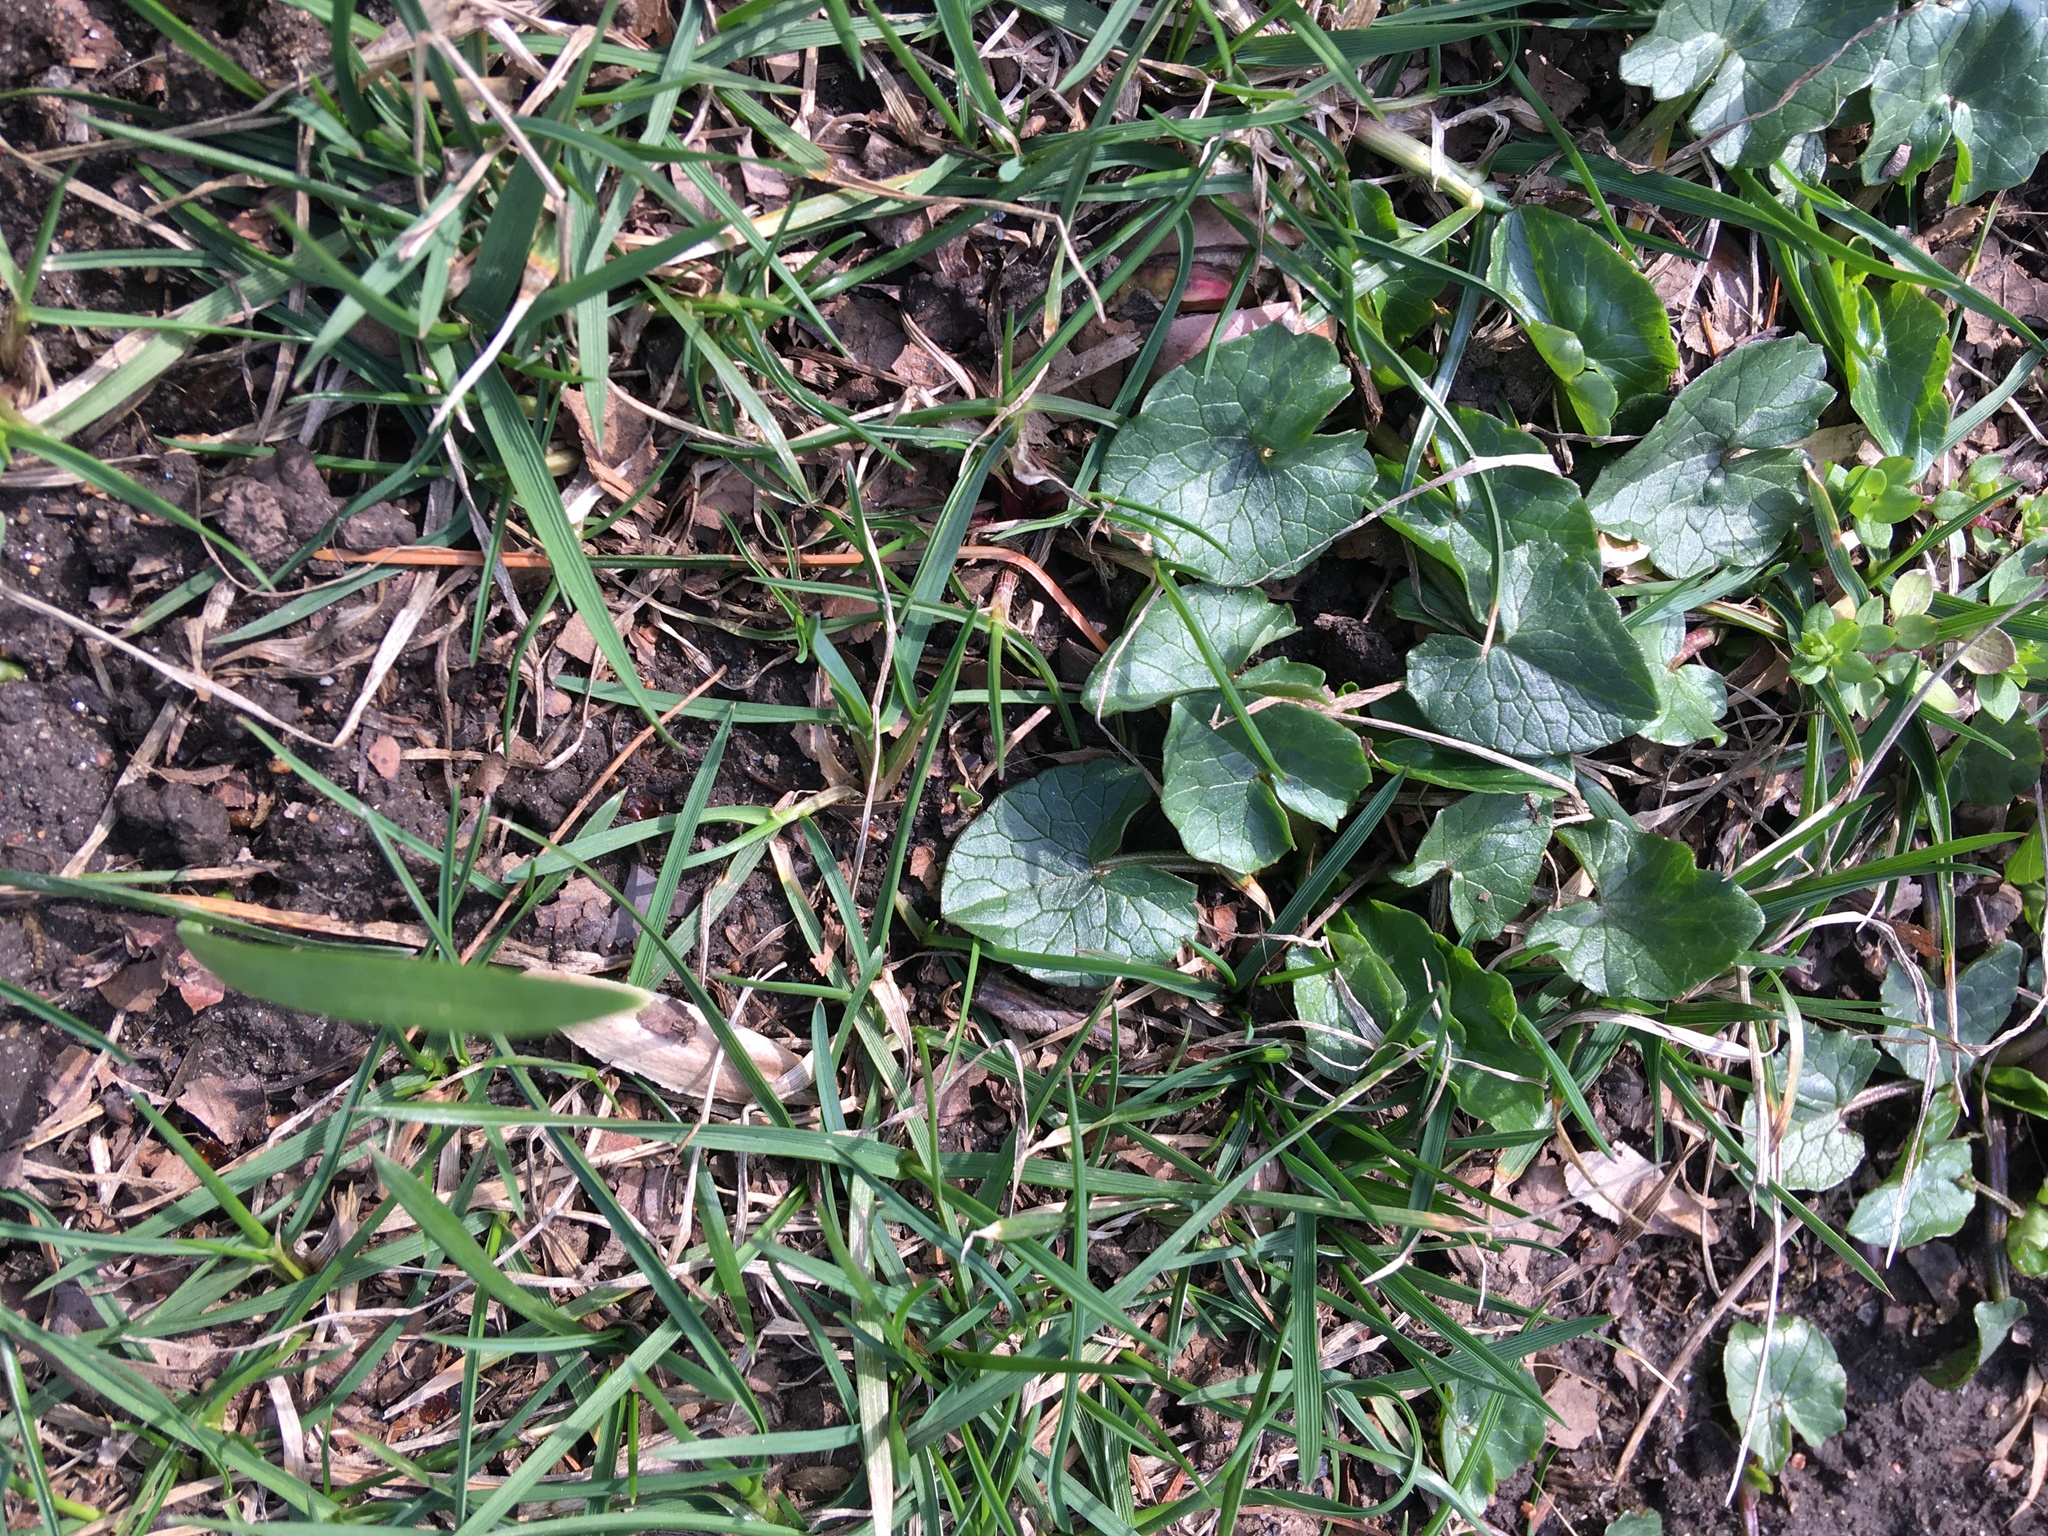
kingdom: Plantae
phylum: Tracheophyta
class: Magnoliopsida
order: Ranunculales
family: Ranunculaceae
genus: Ficaria
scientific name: Ficaria verna
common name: Lesser celandine
